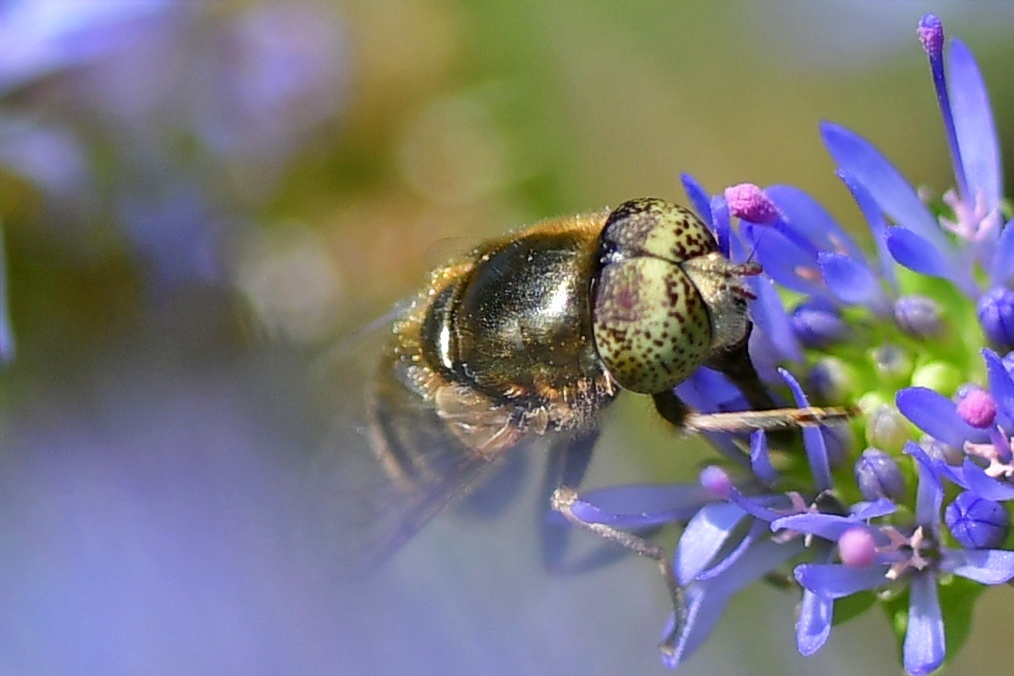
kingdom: Animalia
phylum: Arthropoda
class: Insecta
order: Diptera
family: Syrphidae
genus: Eristalinus
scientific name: Eristalinus aeneus
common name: Syrphid fly
